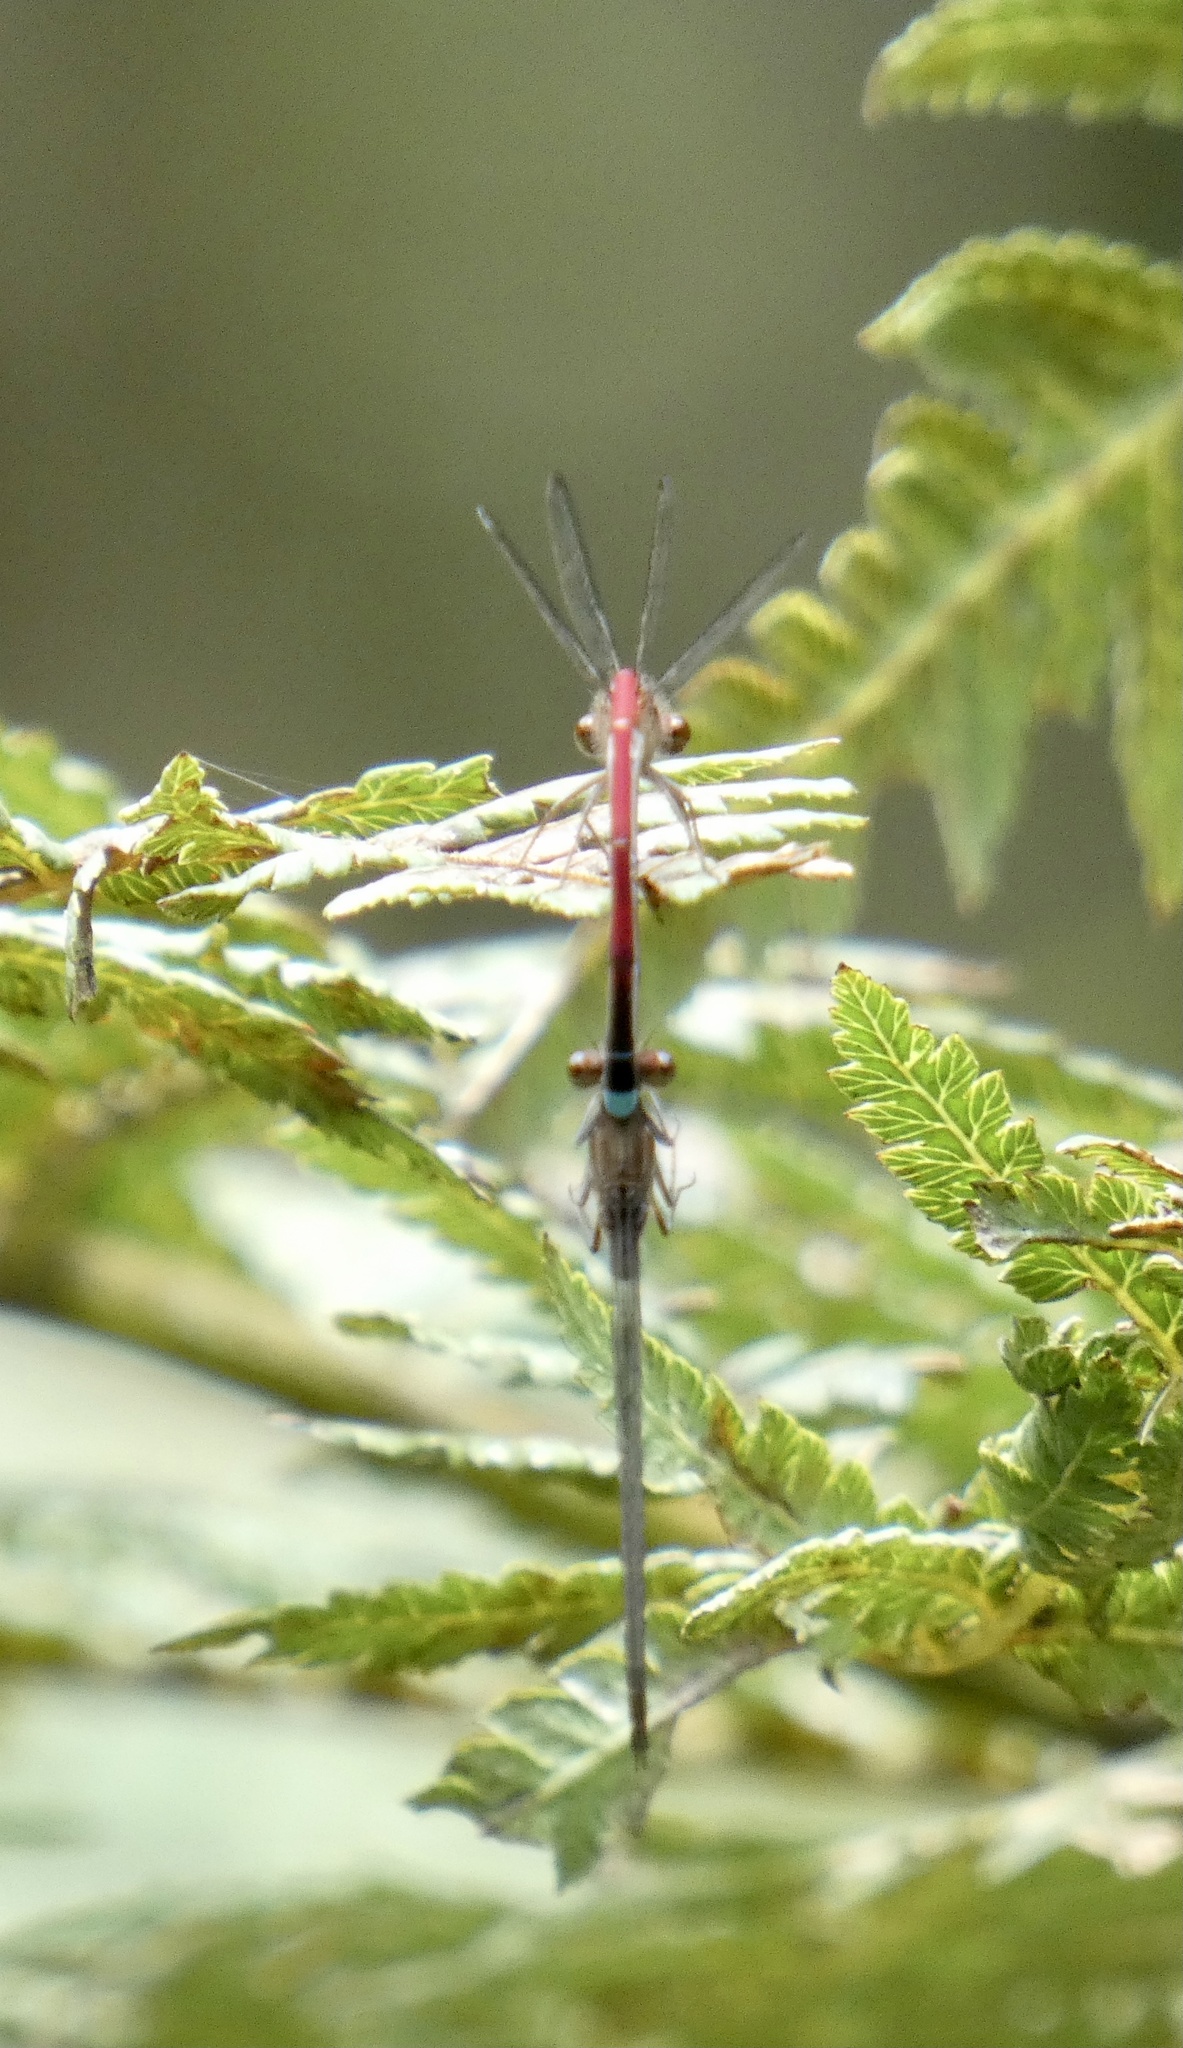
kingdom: Animalia
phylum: Arthropoda
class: Insecta
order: Odonata
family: Coenagrionidae
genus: Oxyagrion
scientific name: Oxyagrion simile
